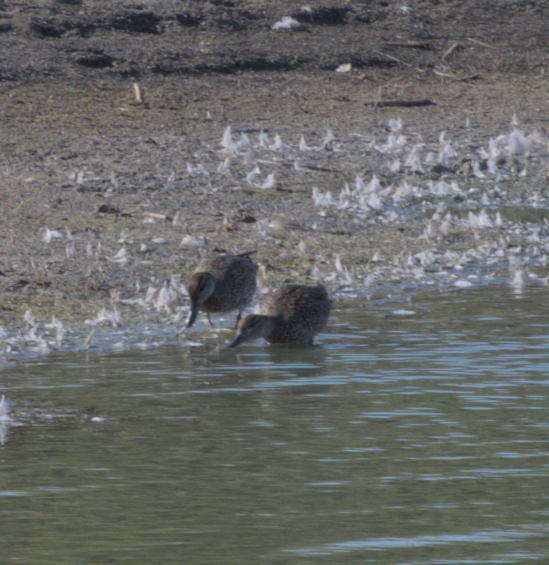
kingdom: Animalia
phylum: Chordata
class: Aves
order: Anseriformes
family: Anatidae
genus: Anas
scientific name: Anas crecca
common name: Eurasian teal
